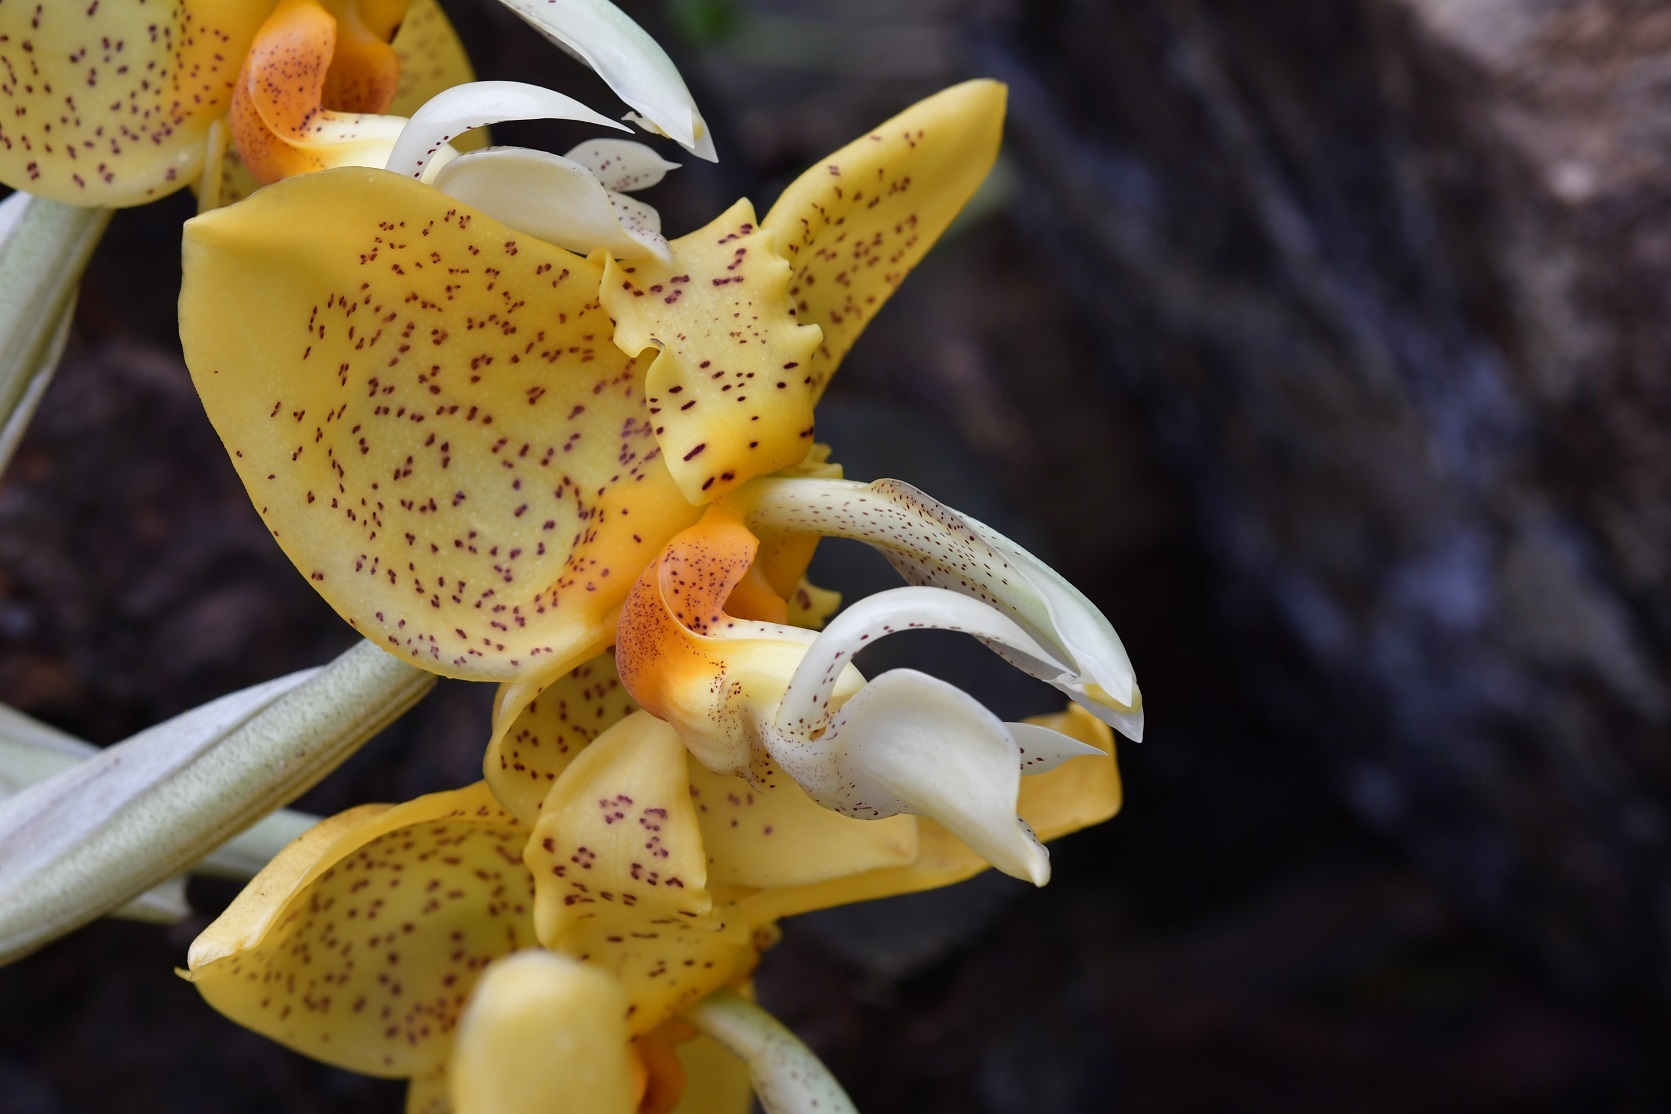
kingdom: Plantae
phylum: Tracheophyta
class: Liliopsida
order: Asparagales
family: Orchidaceae
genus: Stanhopea
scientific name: Stanhopea graveolens
